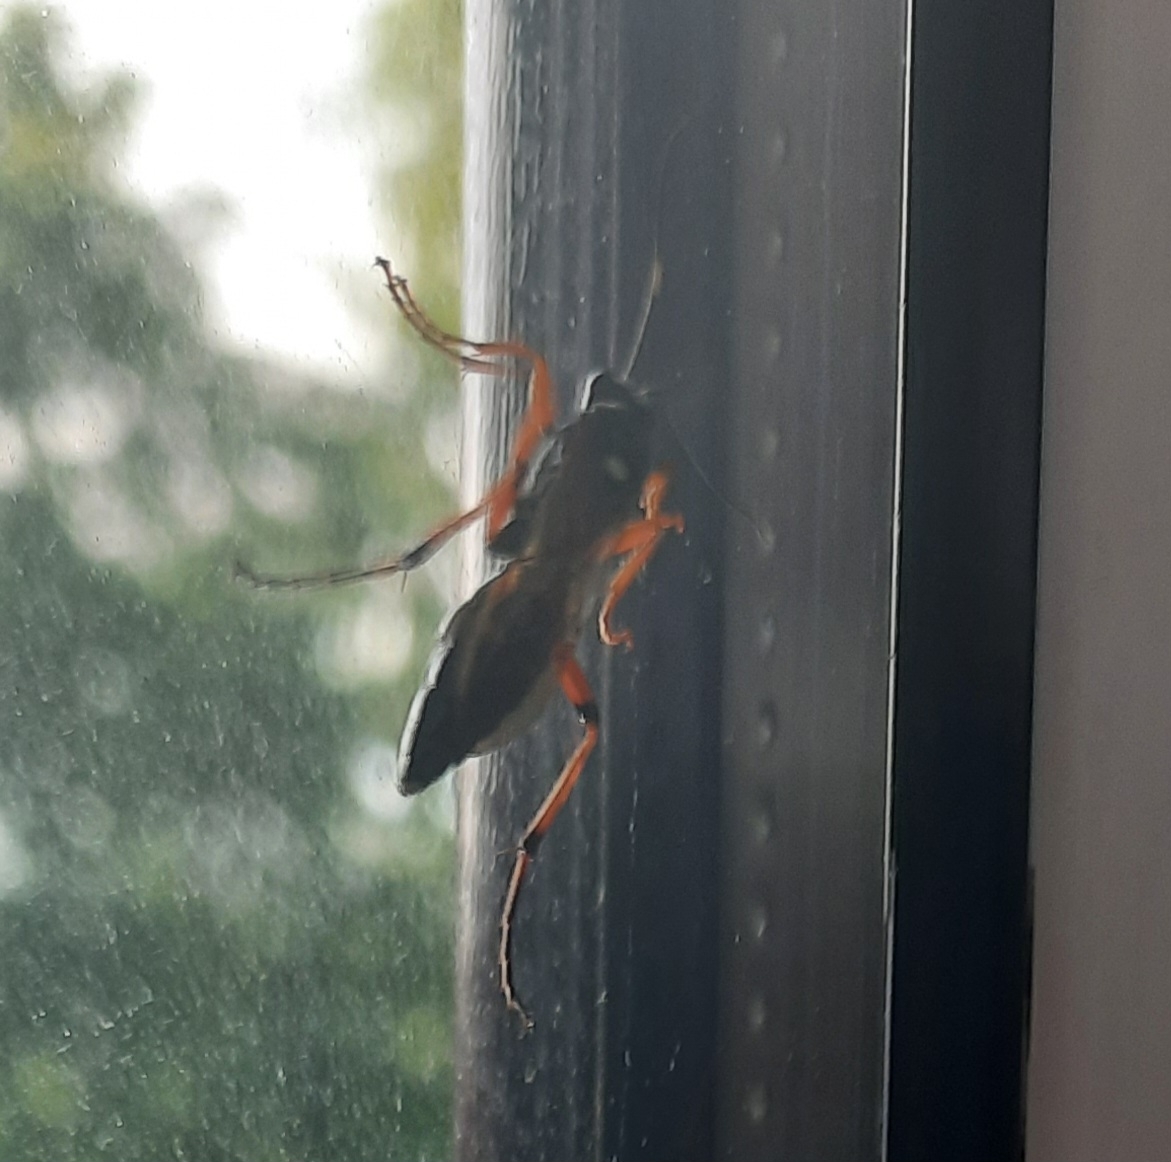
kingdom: Animalia
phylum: Arthropoda
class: Insecta
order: Hymenoptera
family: Ichneumonidae
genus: Diphyus
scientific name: Diphyus quadripunctorius
